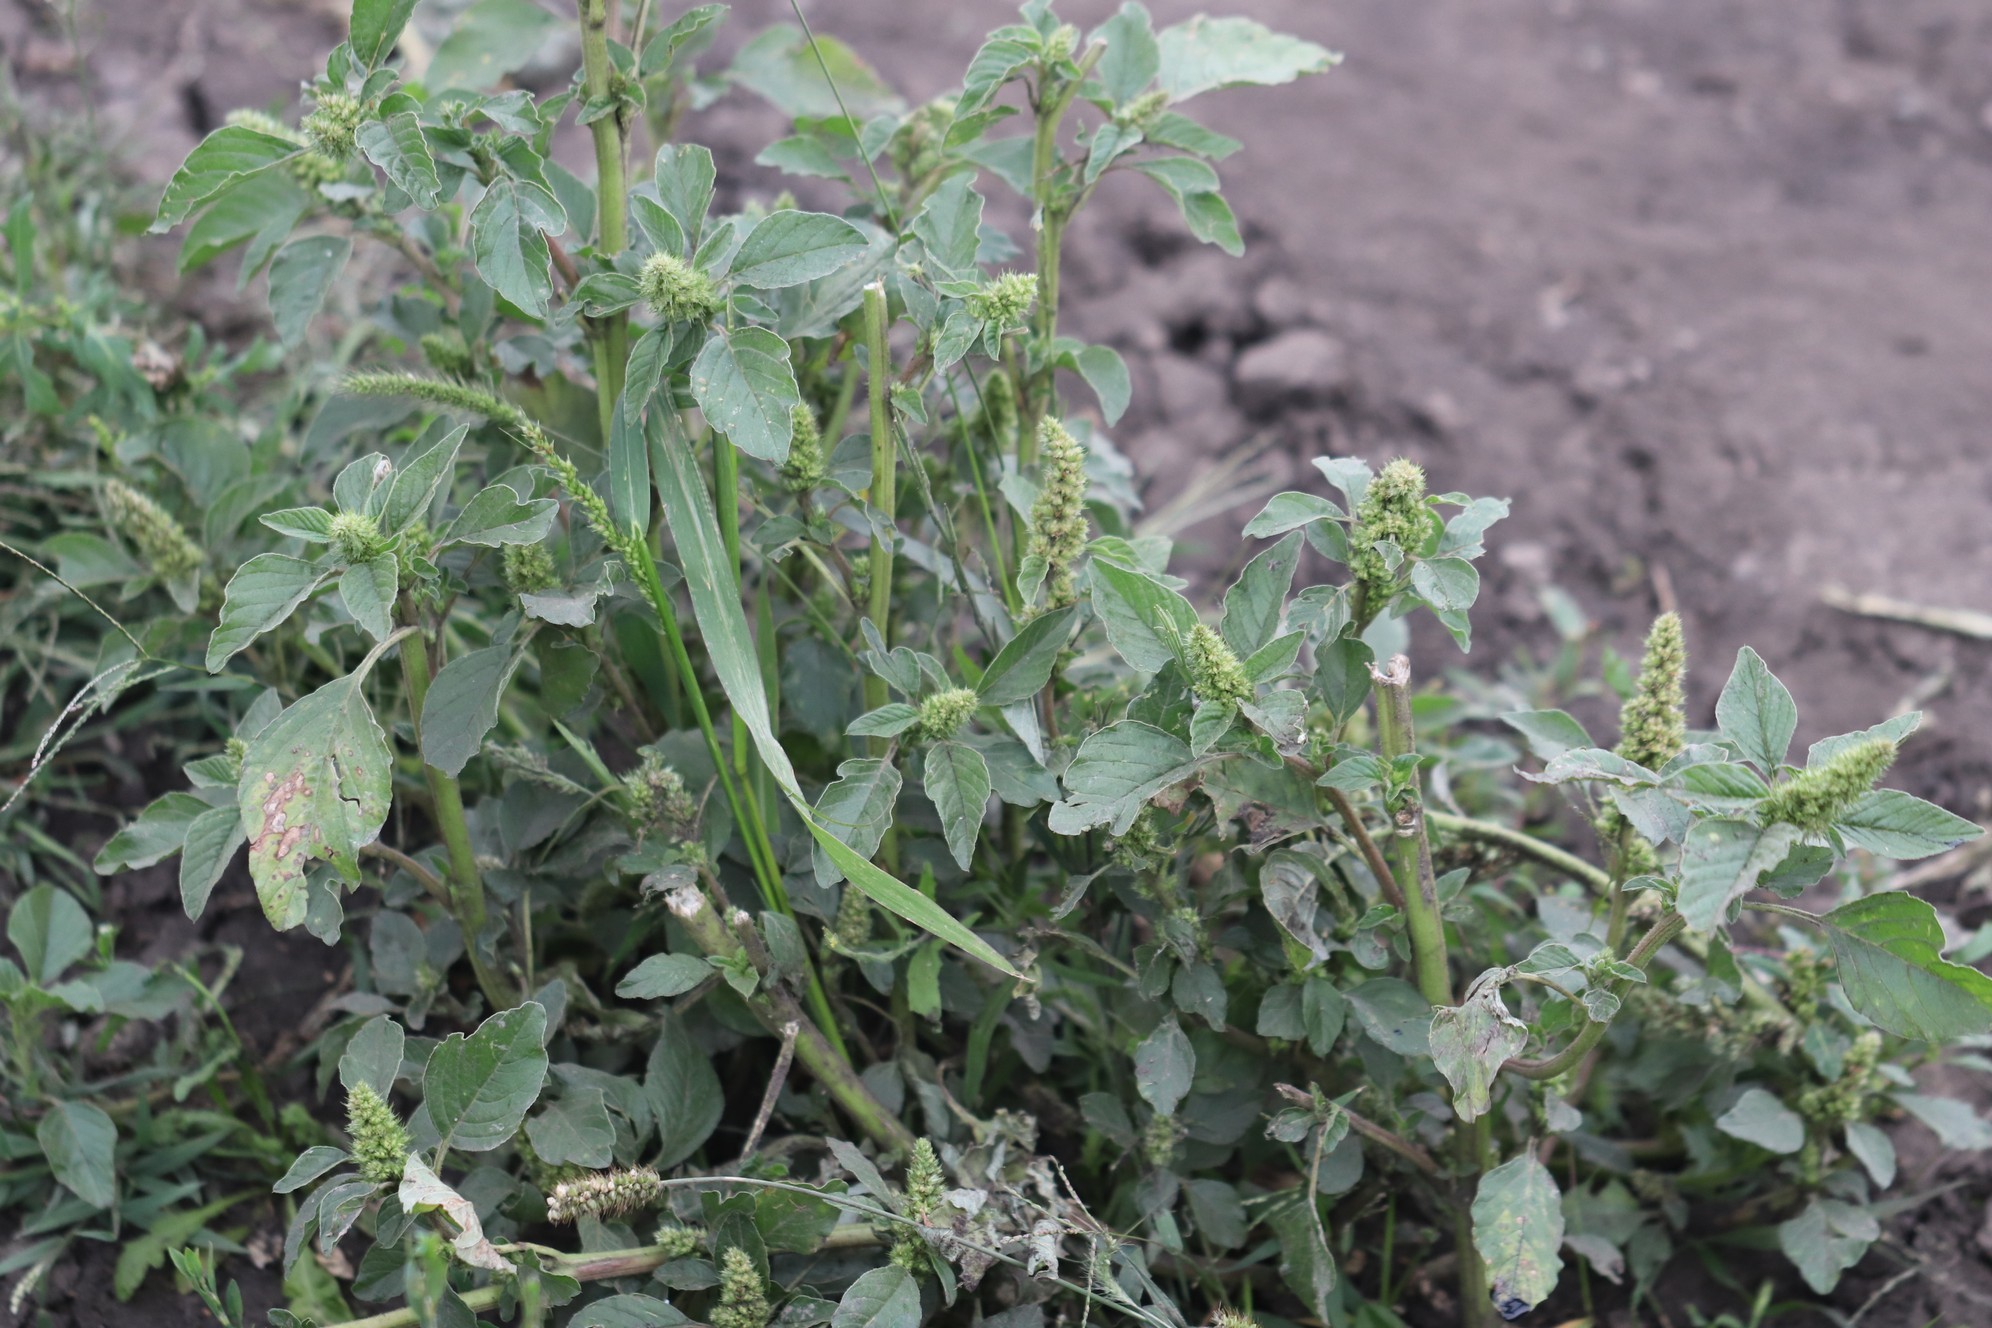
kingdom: Plantae
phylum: Tracheophyta
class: Magnoliopsida
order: Caryophyllales
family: Amaranthaceae
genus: Amaranthus
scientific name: Amaranthus retroflexus
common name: Redroot amaranth
